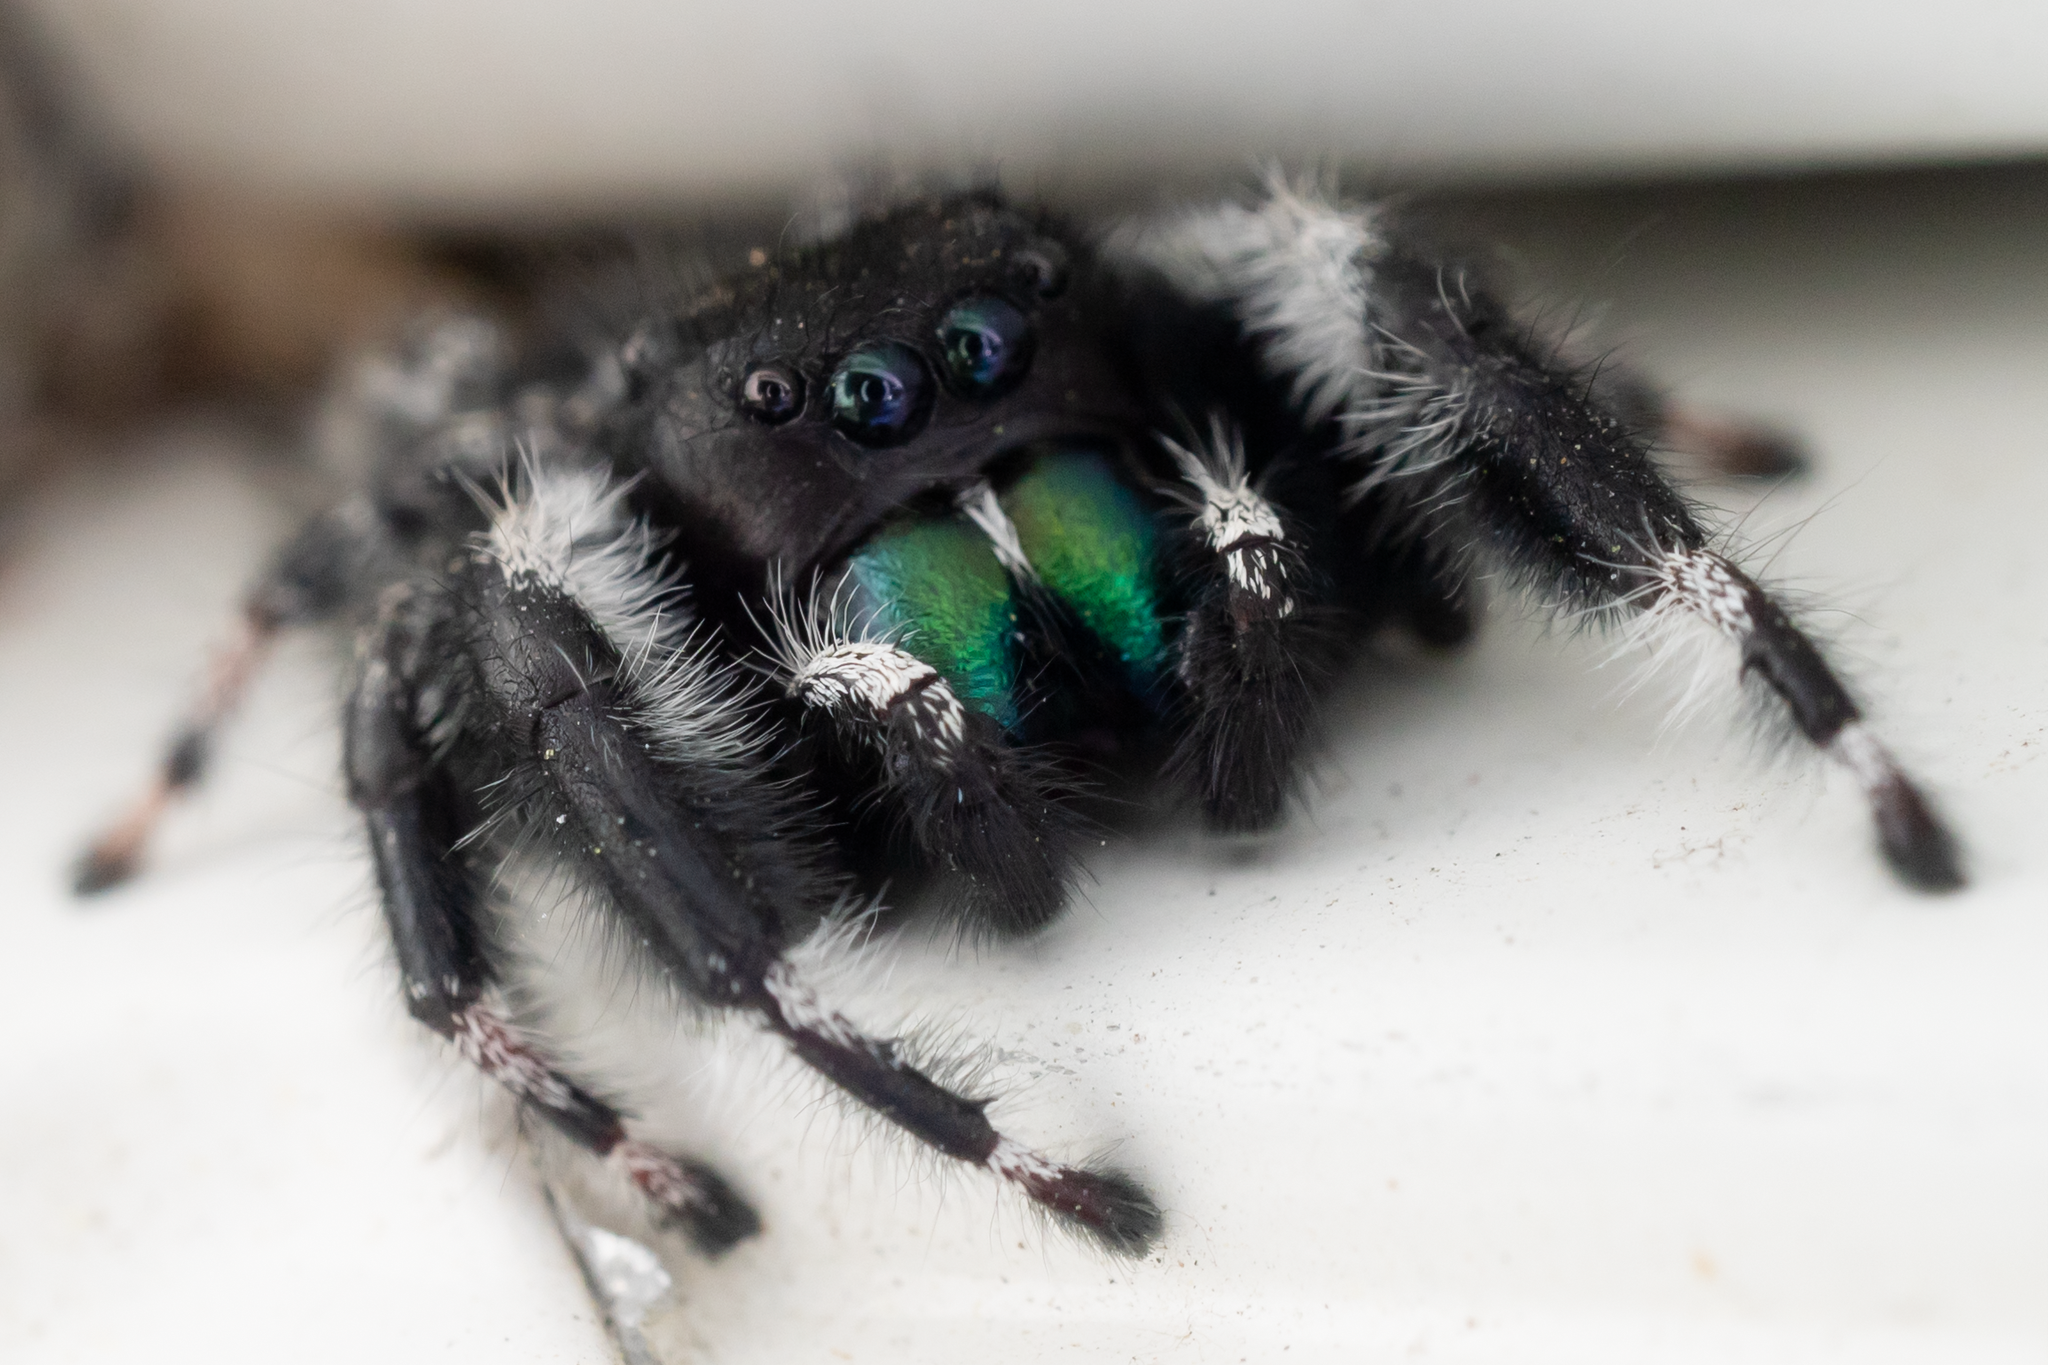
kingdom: Animalia
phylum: Arthropoda
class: Arachnida
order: Araneae
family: Salticidae
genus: Phidippus
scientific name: Phidippus audax
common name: Bold jumper
